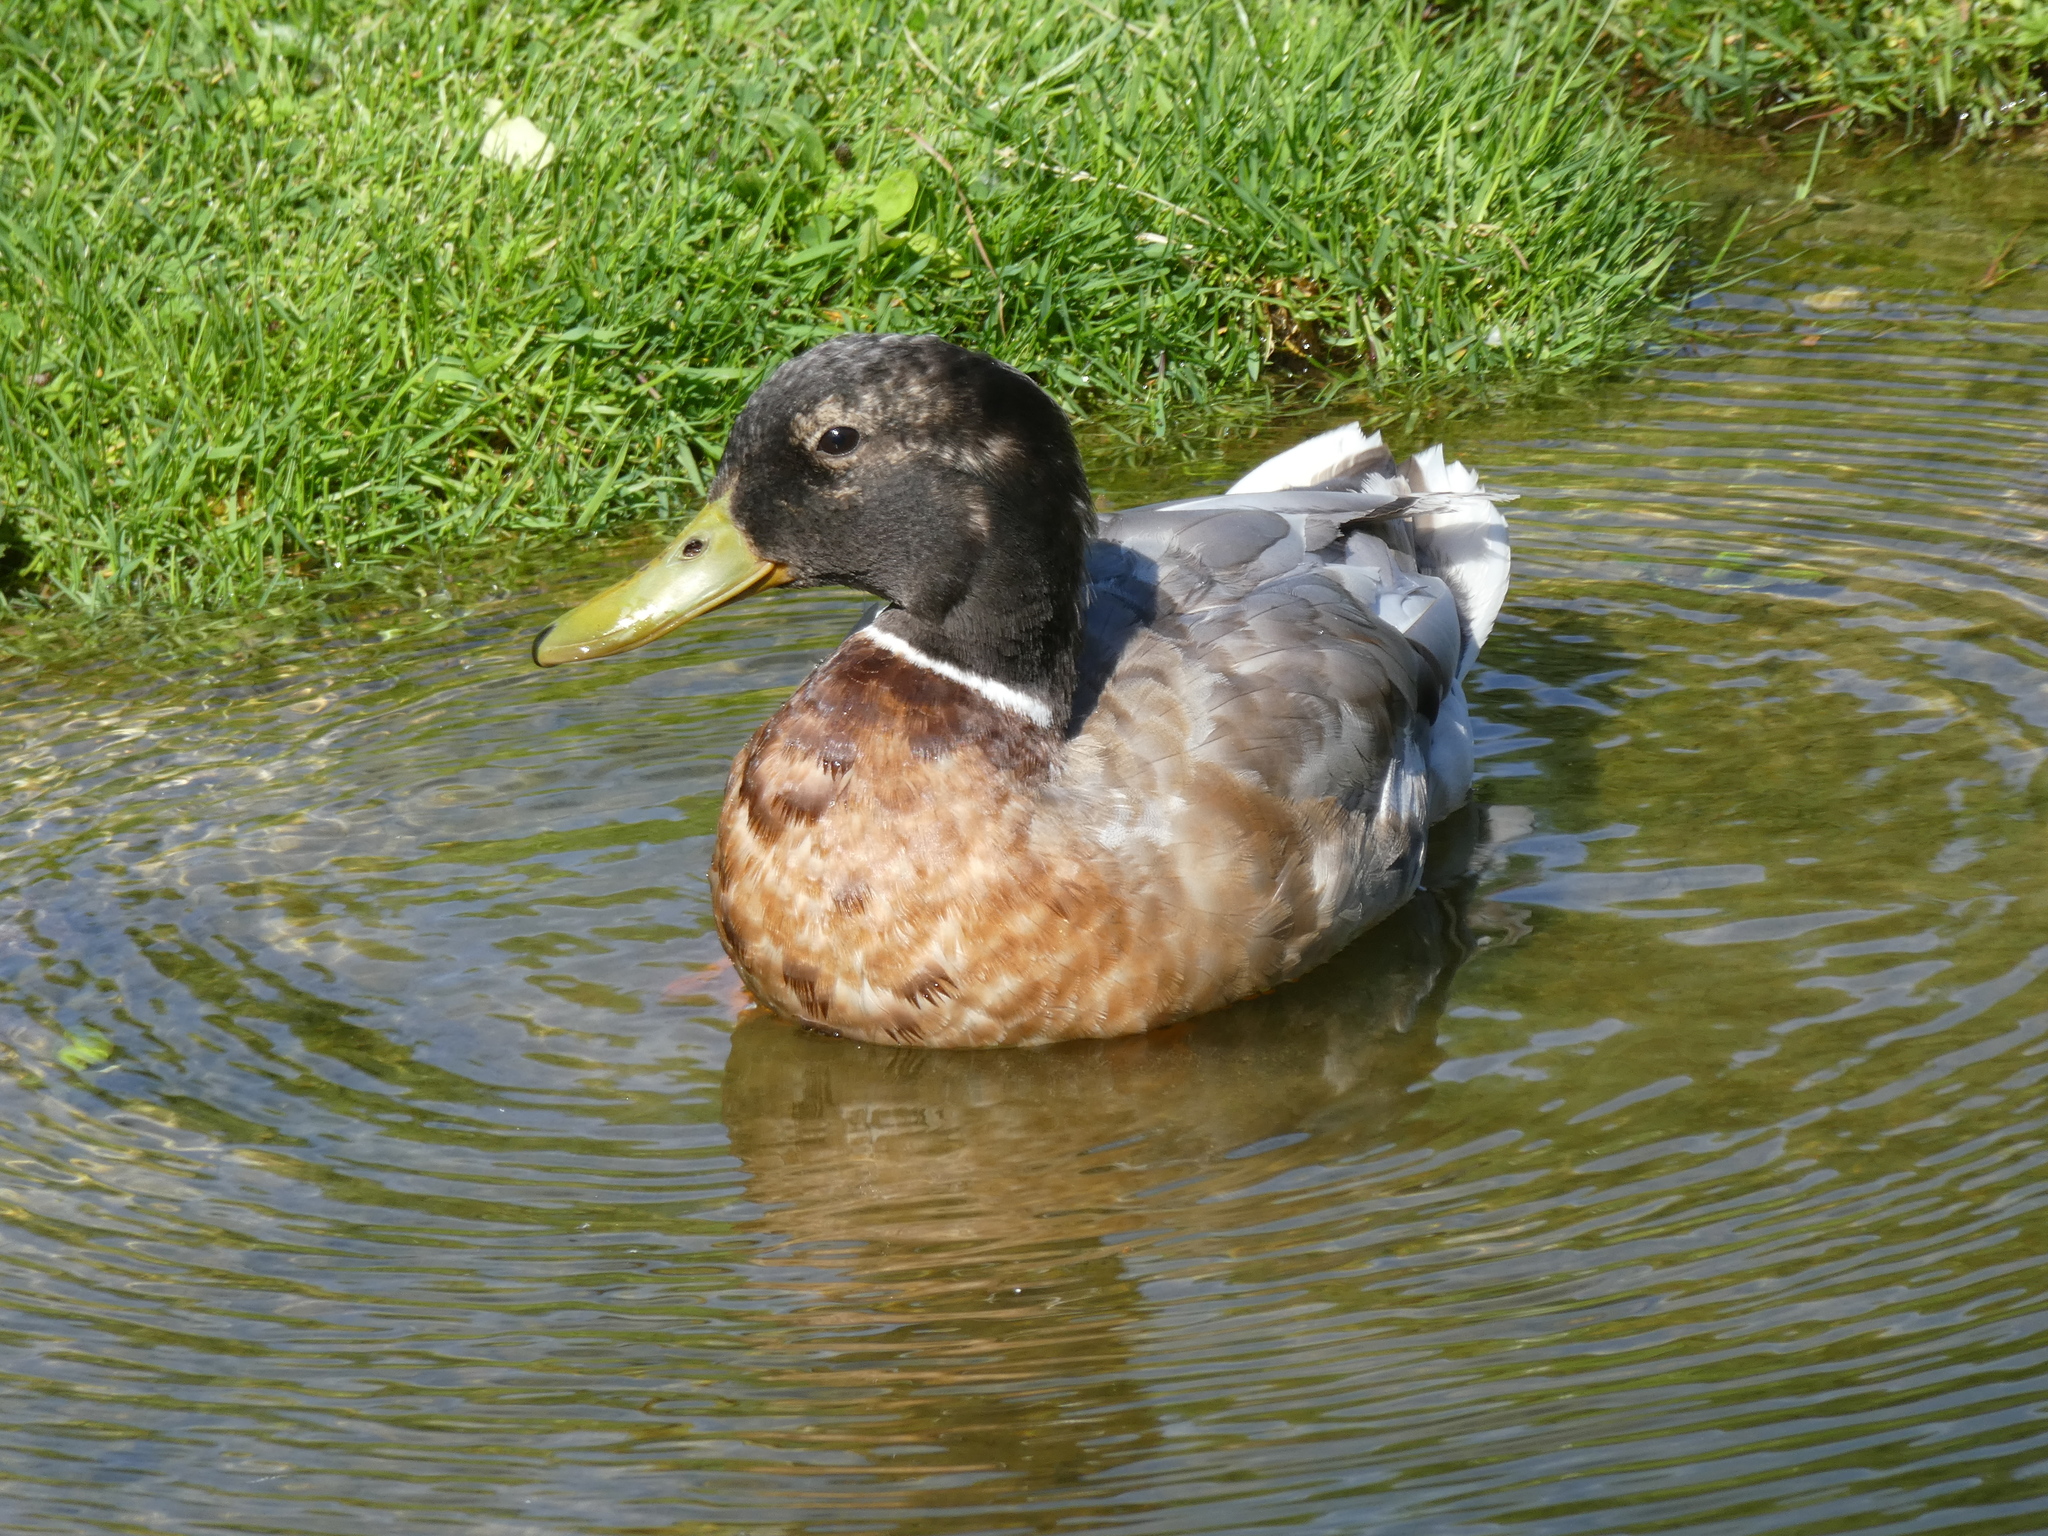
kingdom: Animalia
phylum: Chordata
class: Aves
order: Anseriformes
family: Anatidae
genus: Anas
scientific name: Anas platyrhynchos
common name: Mallard
